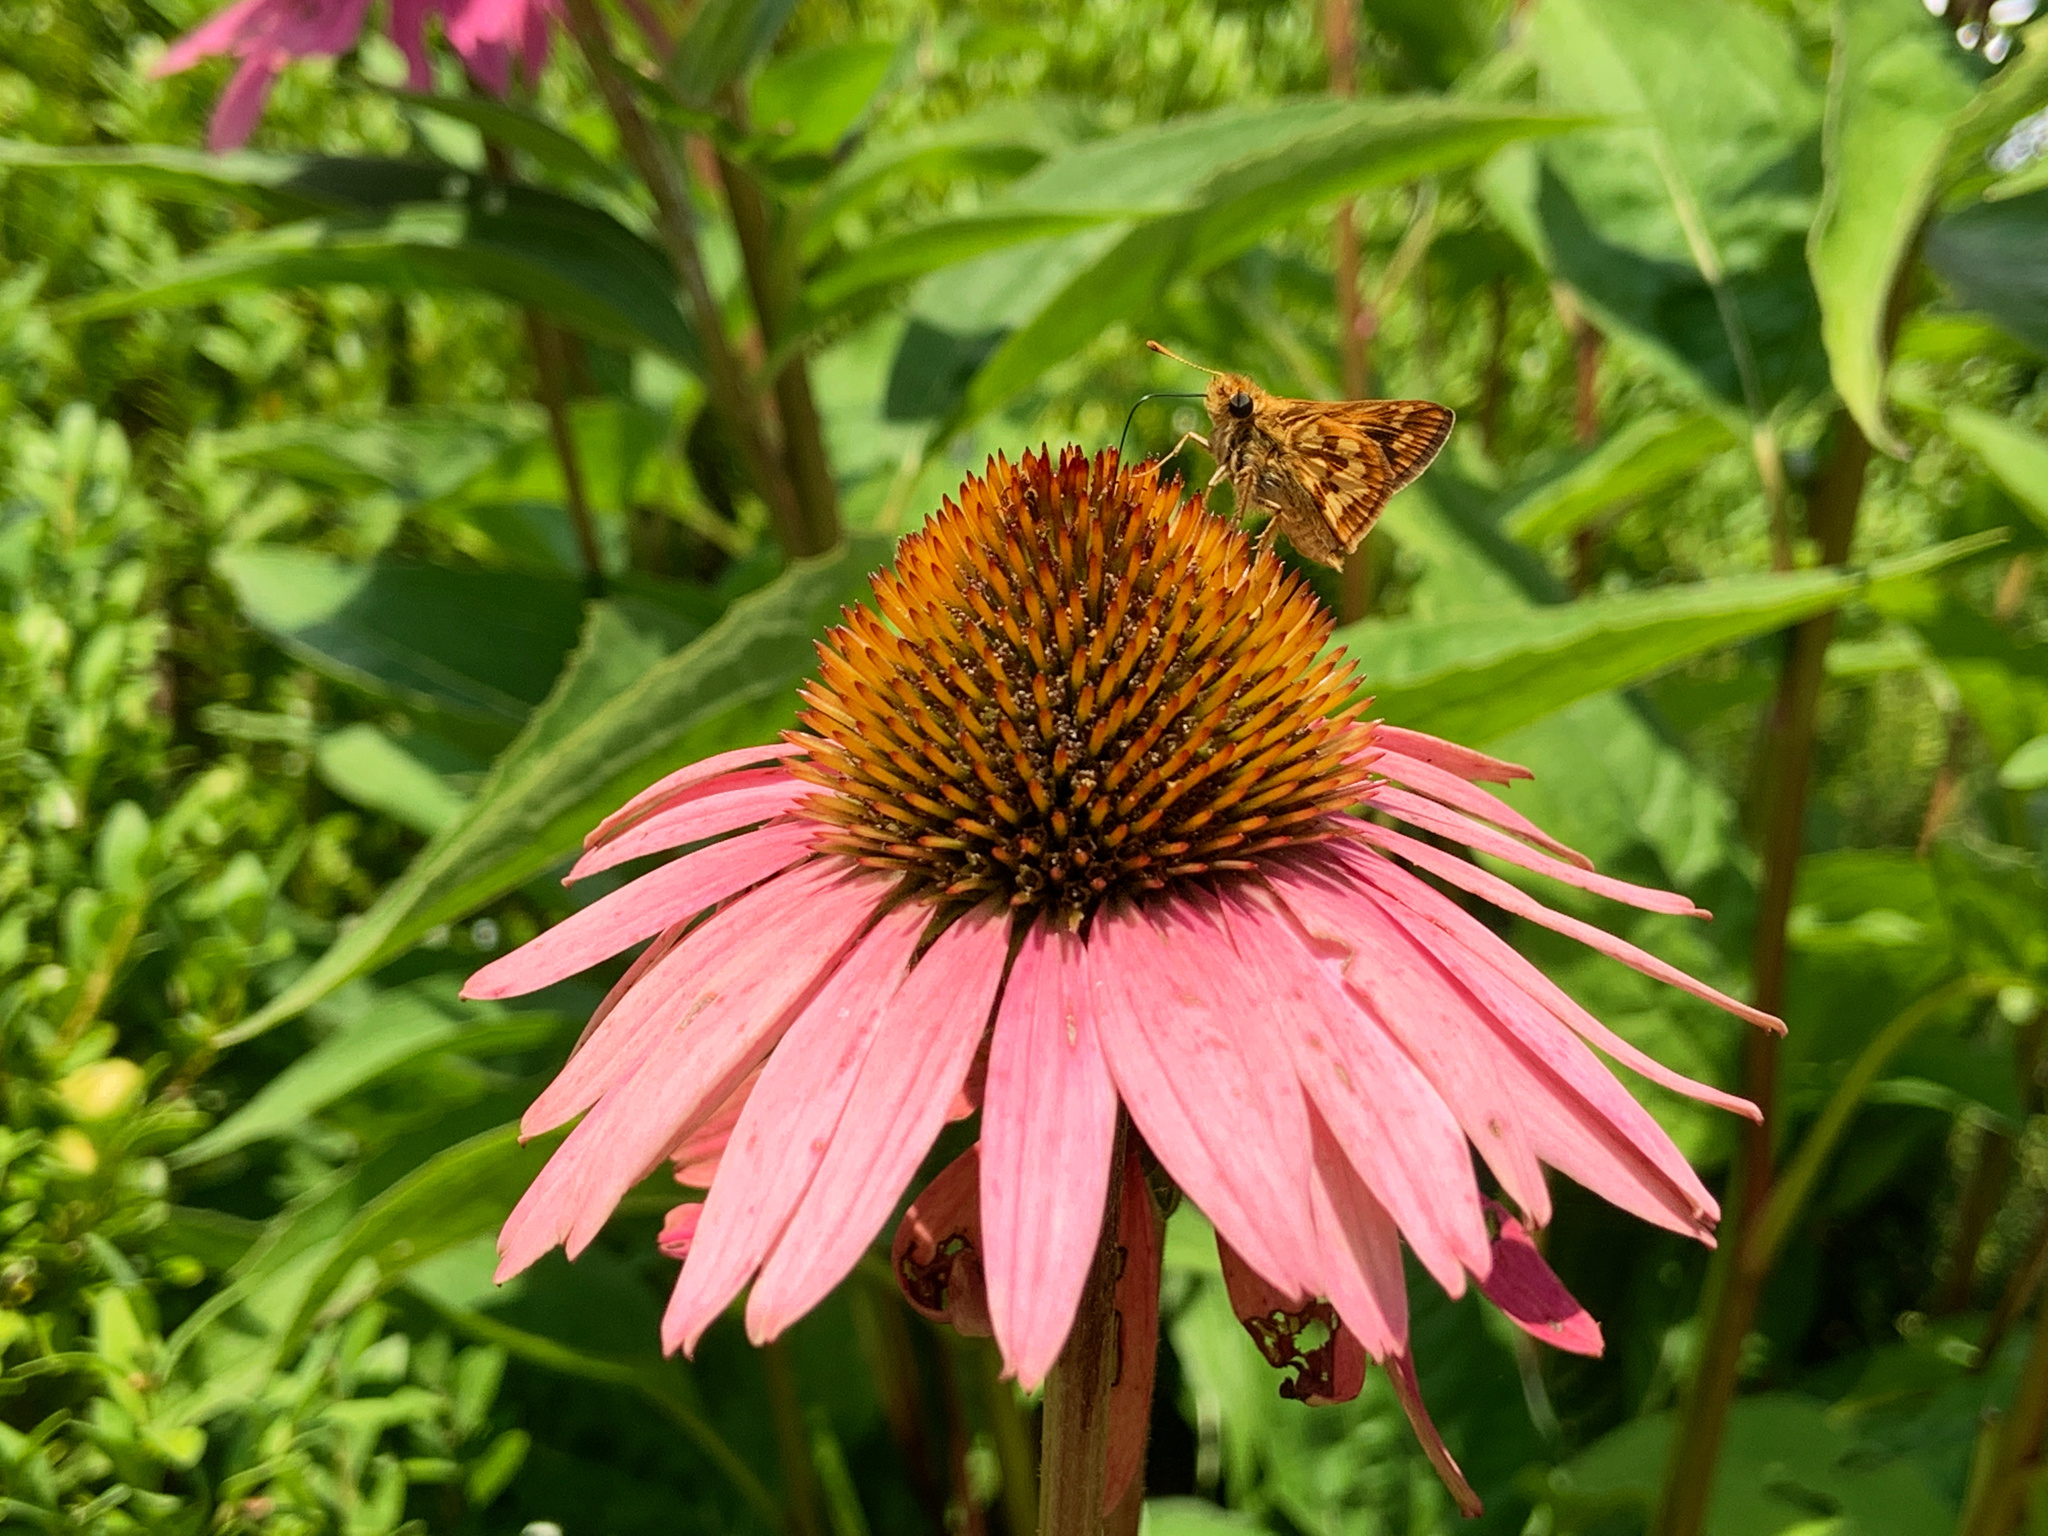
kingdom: Animalia
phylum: Arthropoda
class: Insecta
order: Lepidoptera
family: Hesperiidae
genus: Polites
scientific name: Polites coras
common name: Peck's skipper
